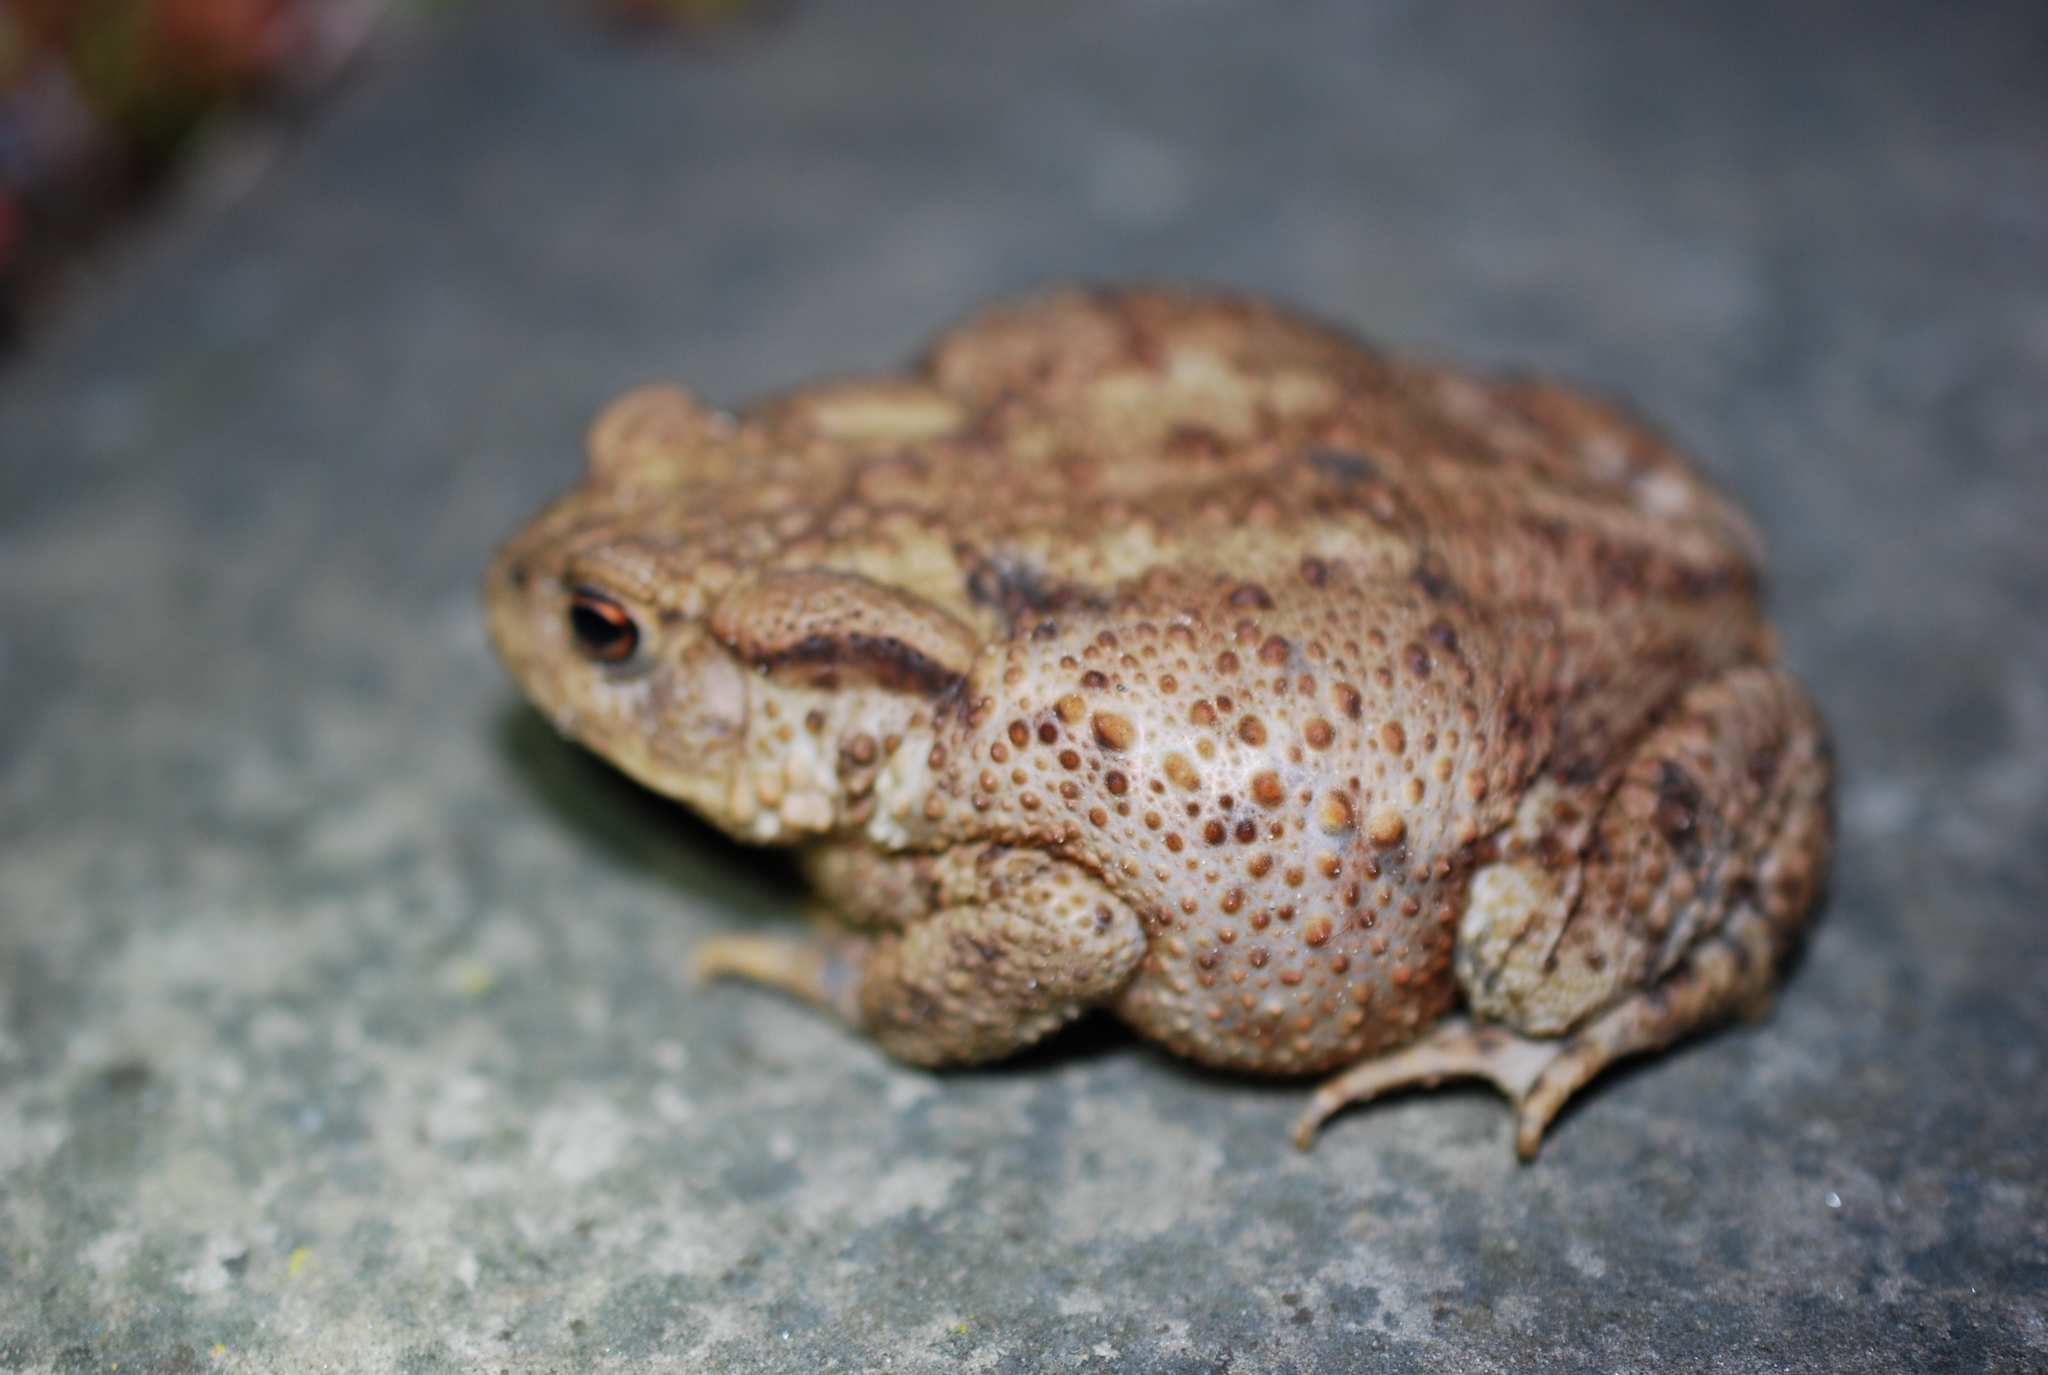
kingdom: Animalia
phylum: Chordata
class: Amphibia
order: Anura
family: Bufonidae
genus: Bufo
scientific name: Bufo bufo
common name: Common toad
